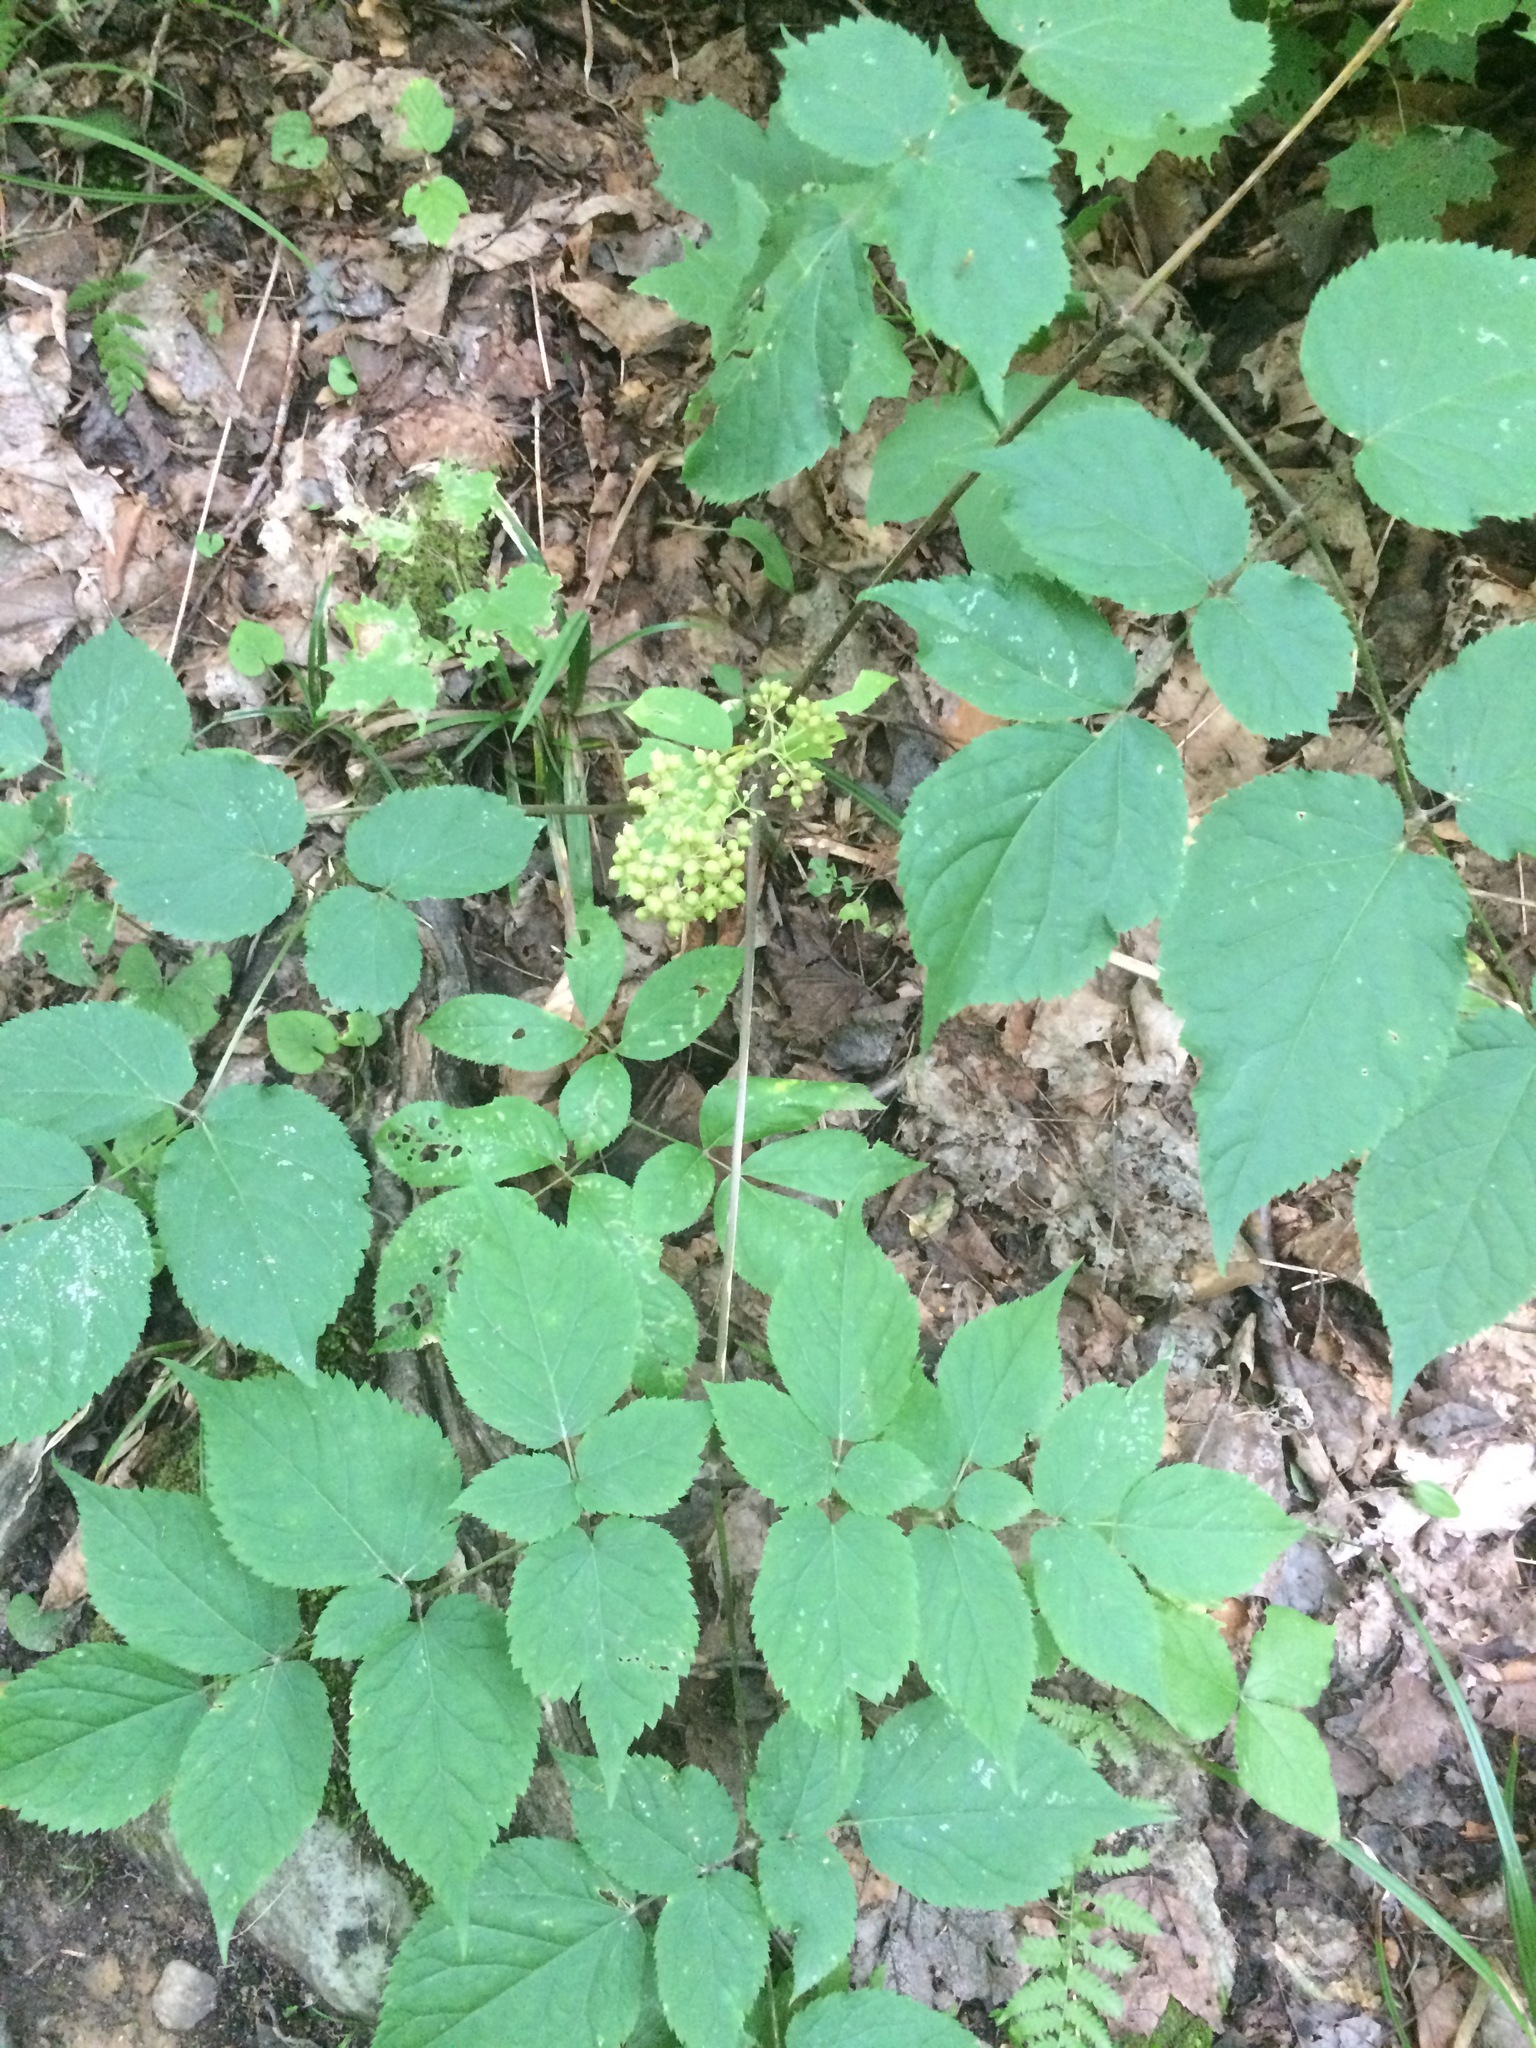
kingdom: Plantae
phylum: Tracheophyta
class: Magnoliopsida
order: Apiales
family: Araliaceae
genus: Aralia
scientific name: Aralia racemosa
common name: American-spikenard
